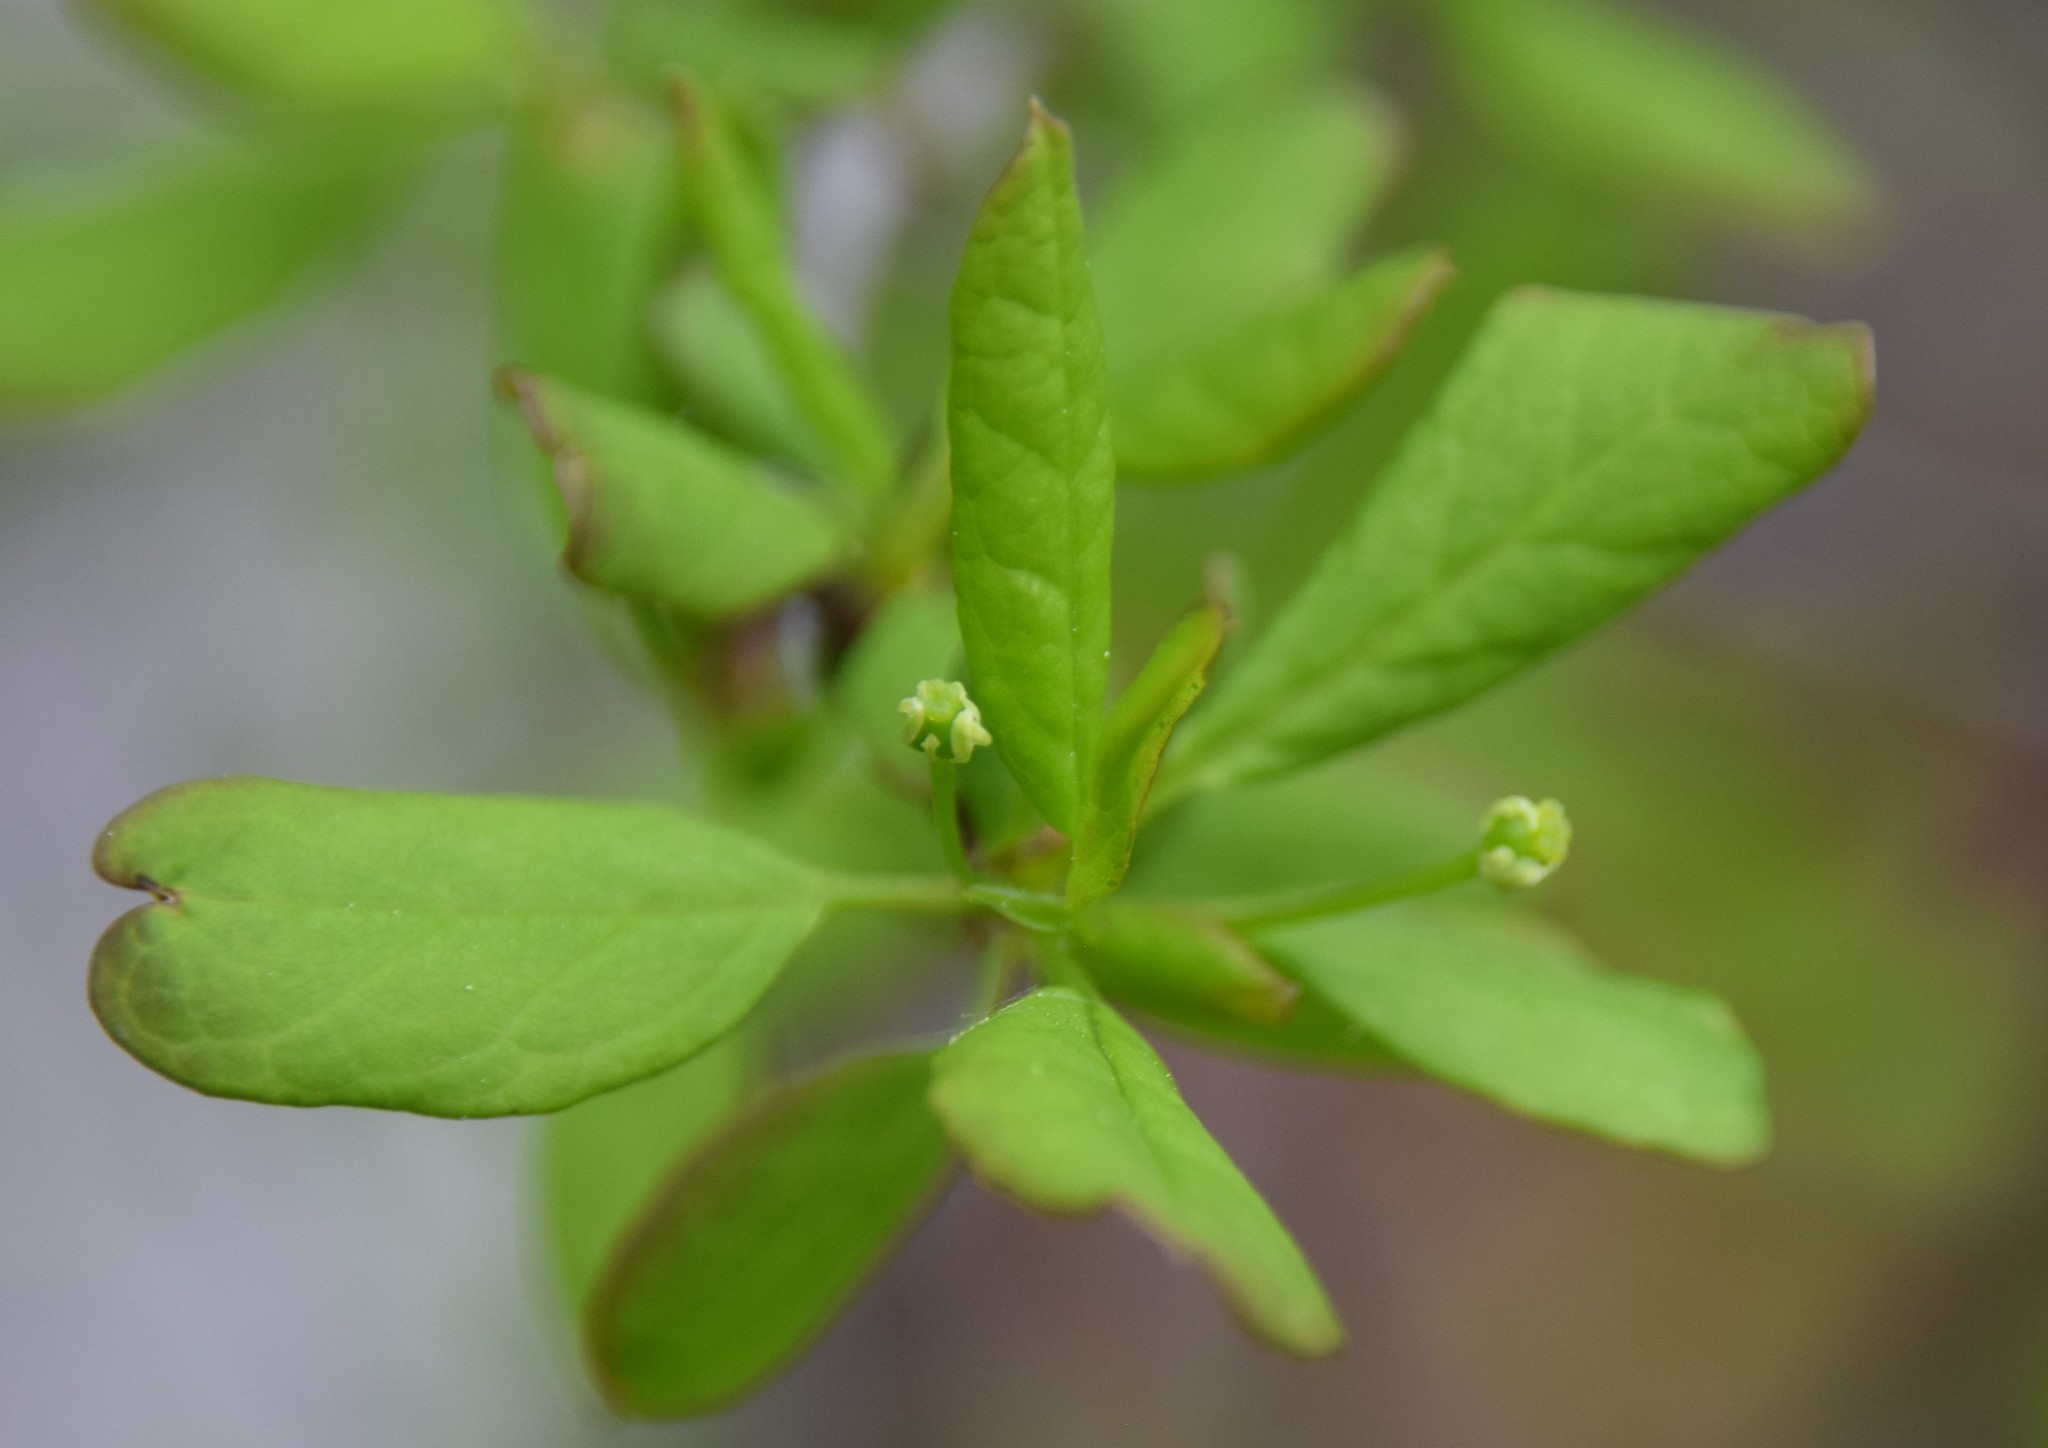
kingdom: Plantae
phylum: Tracheophyta
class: Magnoliopsida
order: Aquifoliales
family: Aquifoliaceae
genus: Ilex
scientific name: Ilex mucronata
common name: Catberry
